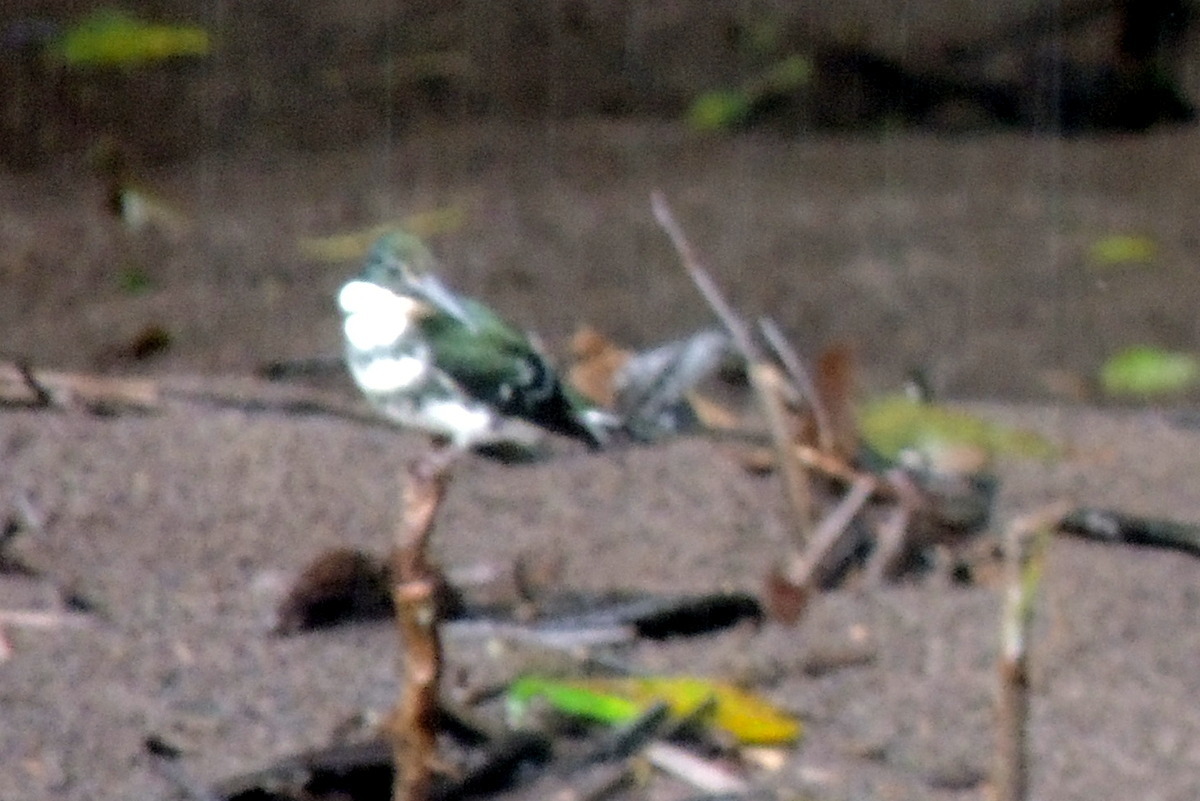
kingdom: Animalia
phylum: Chordata
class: Aves
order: Coraciiformes
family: Alcedinidae
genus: Chloroceryle
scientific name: Chloroceryle americana
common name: Green kingfisher
